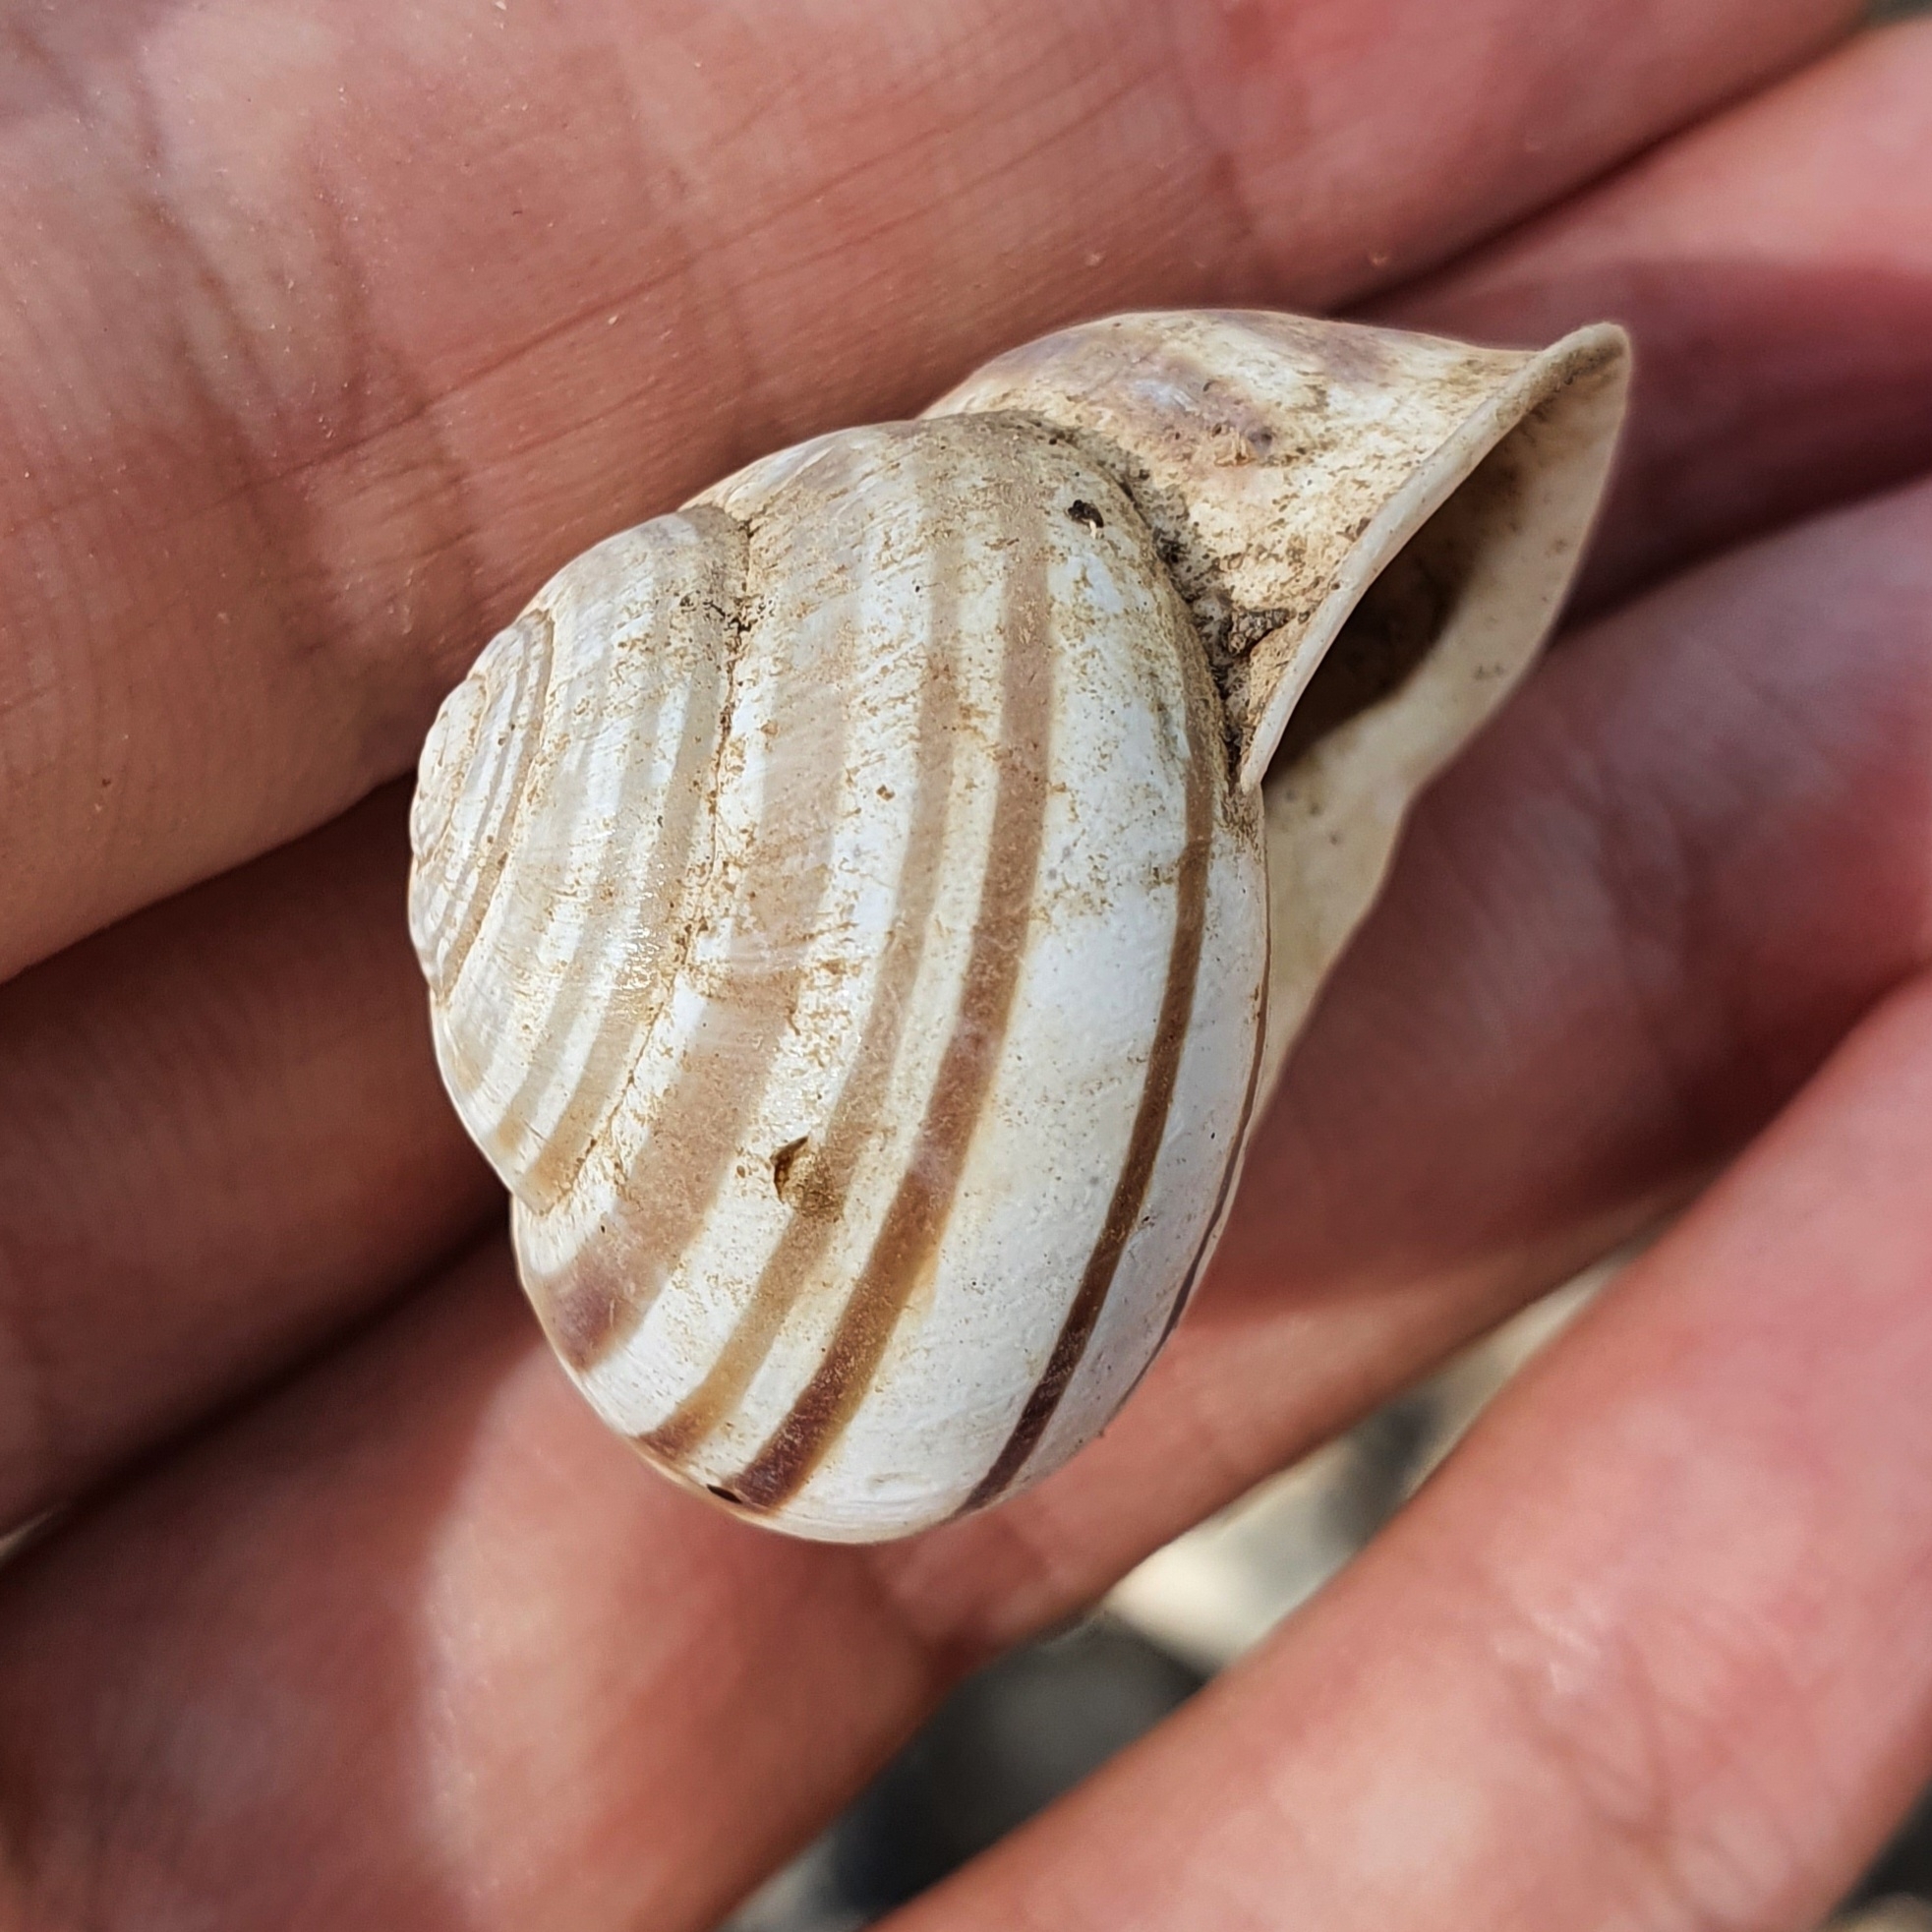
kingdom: Animalia
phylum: Mollusca
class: Gastropoda
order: Stylommatophora
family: Helicidae
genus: Eobania
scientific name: Eobania constantina
